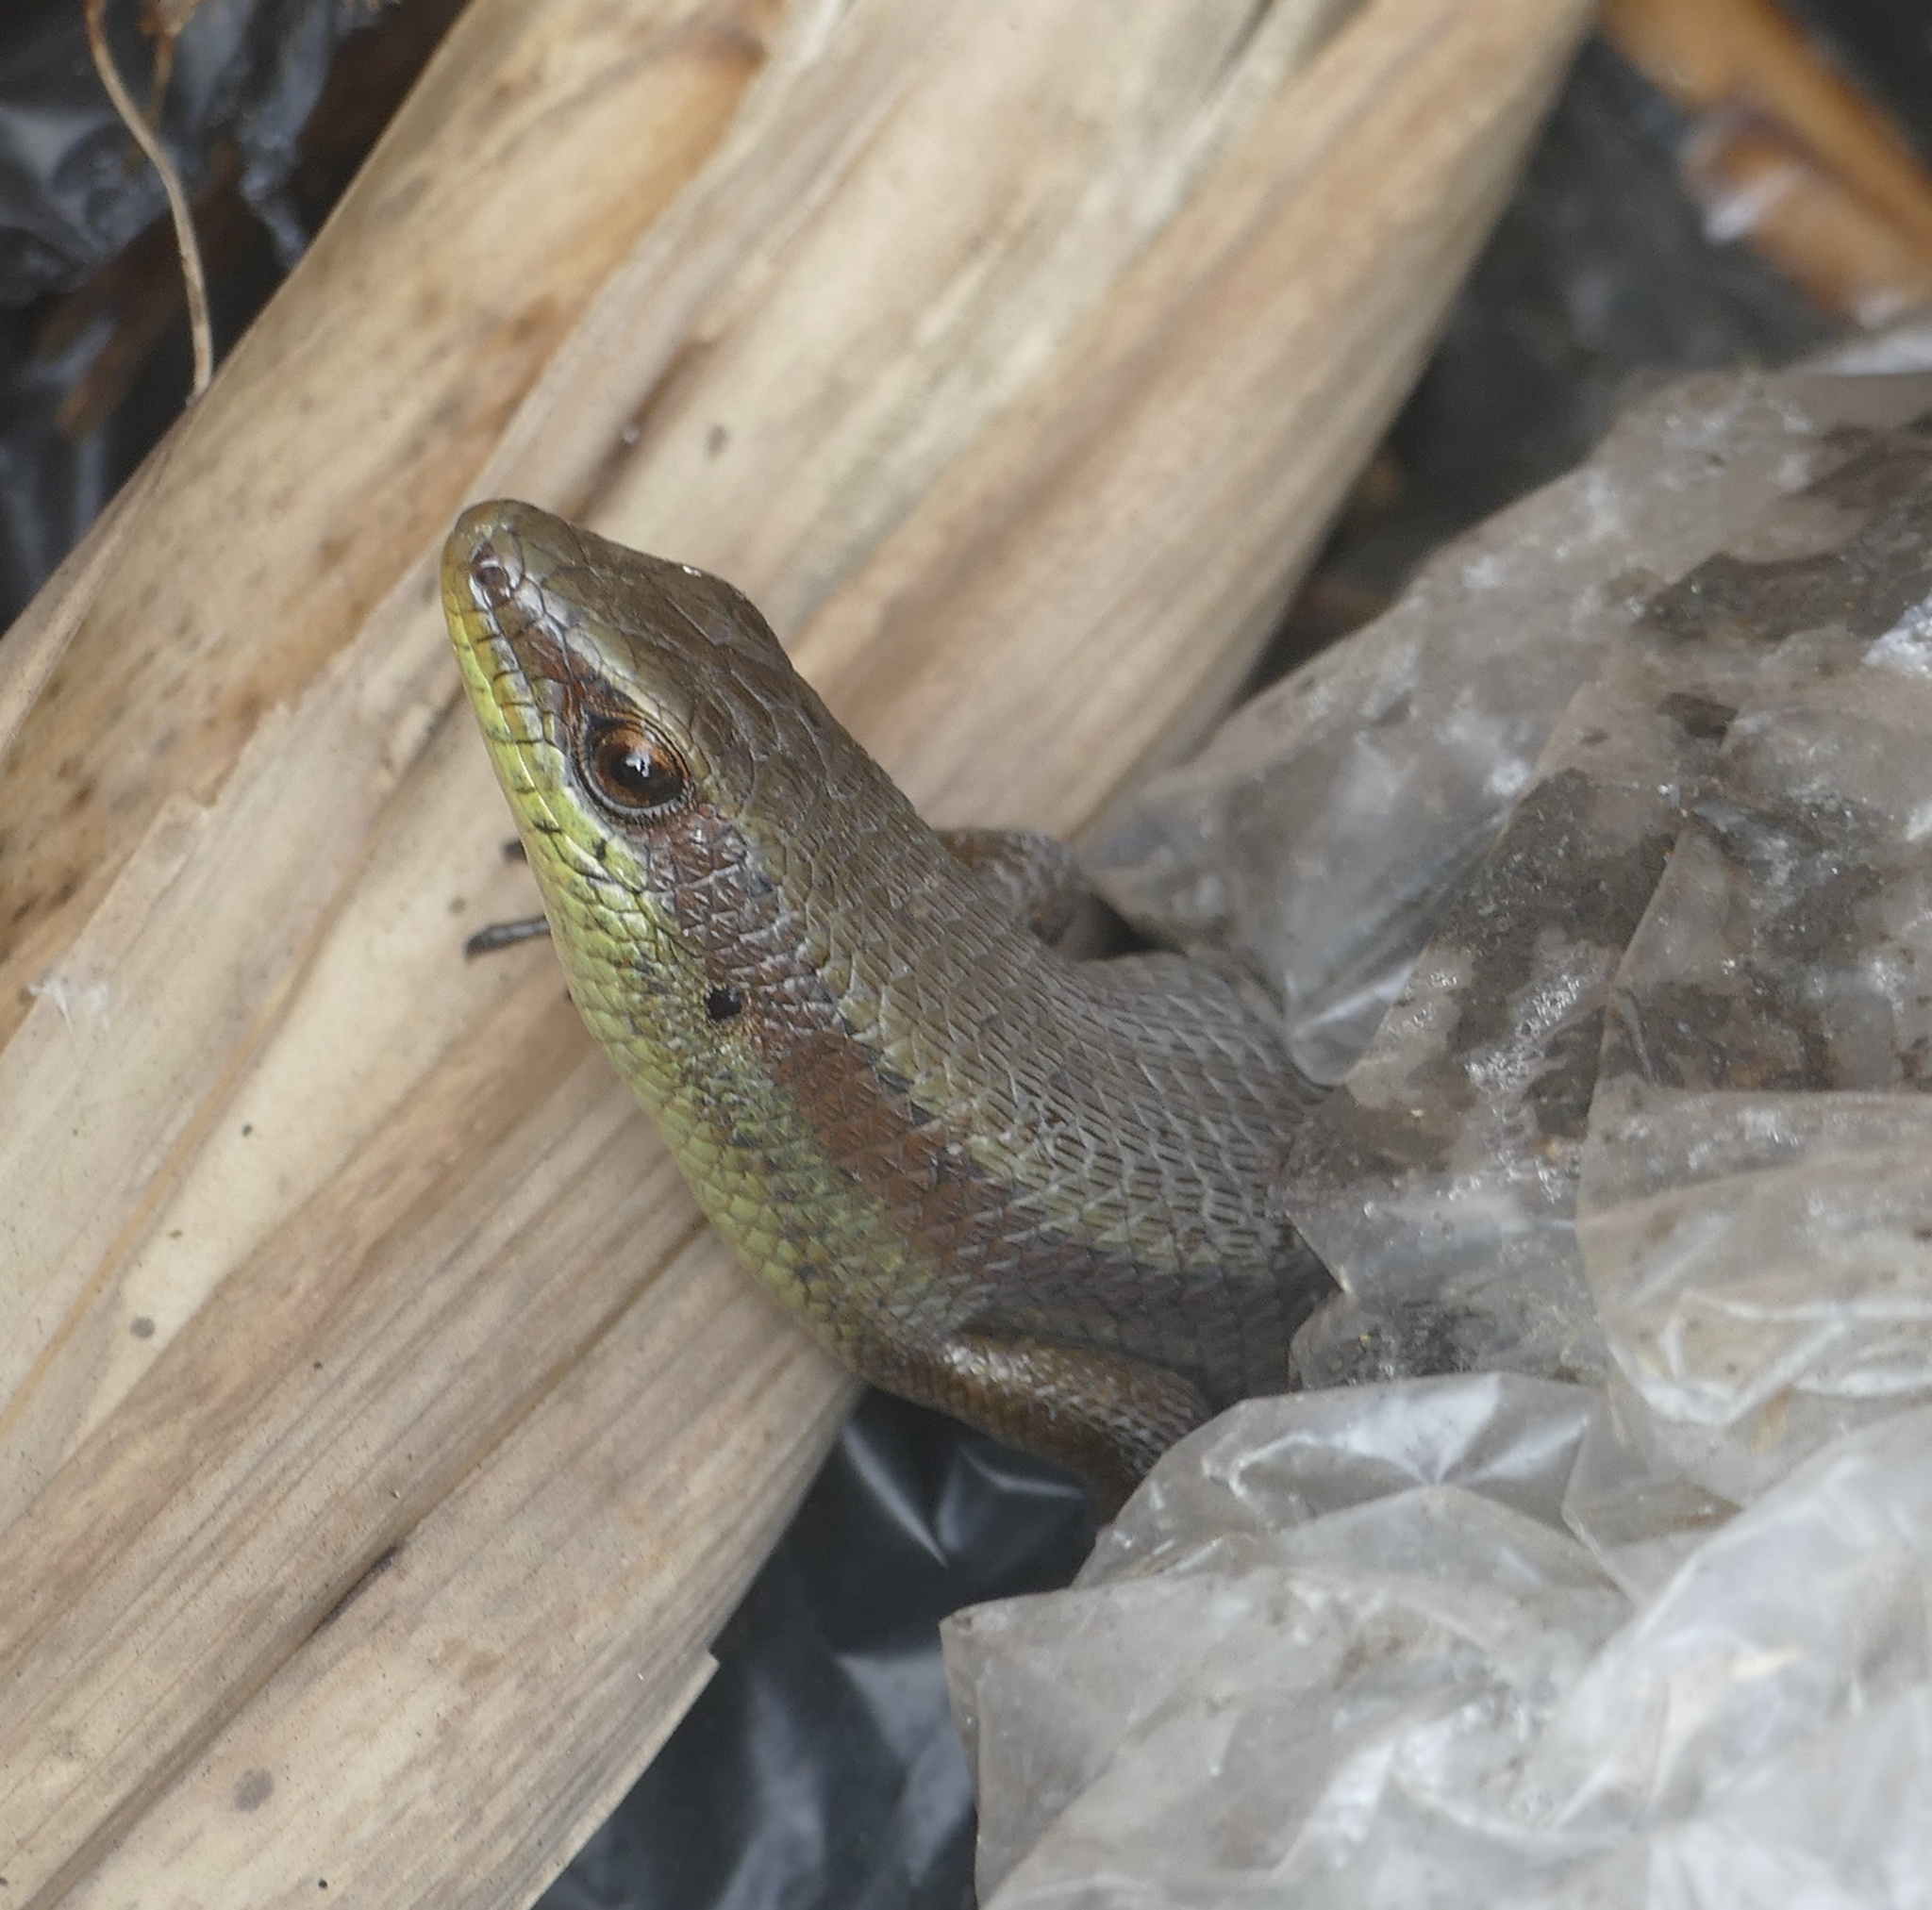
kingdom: Animalia
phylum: Chordata
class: Squamata
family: Scincidae
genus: Eutropis
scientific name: Eutropis rudis
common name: Rough mabuya
